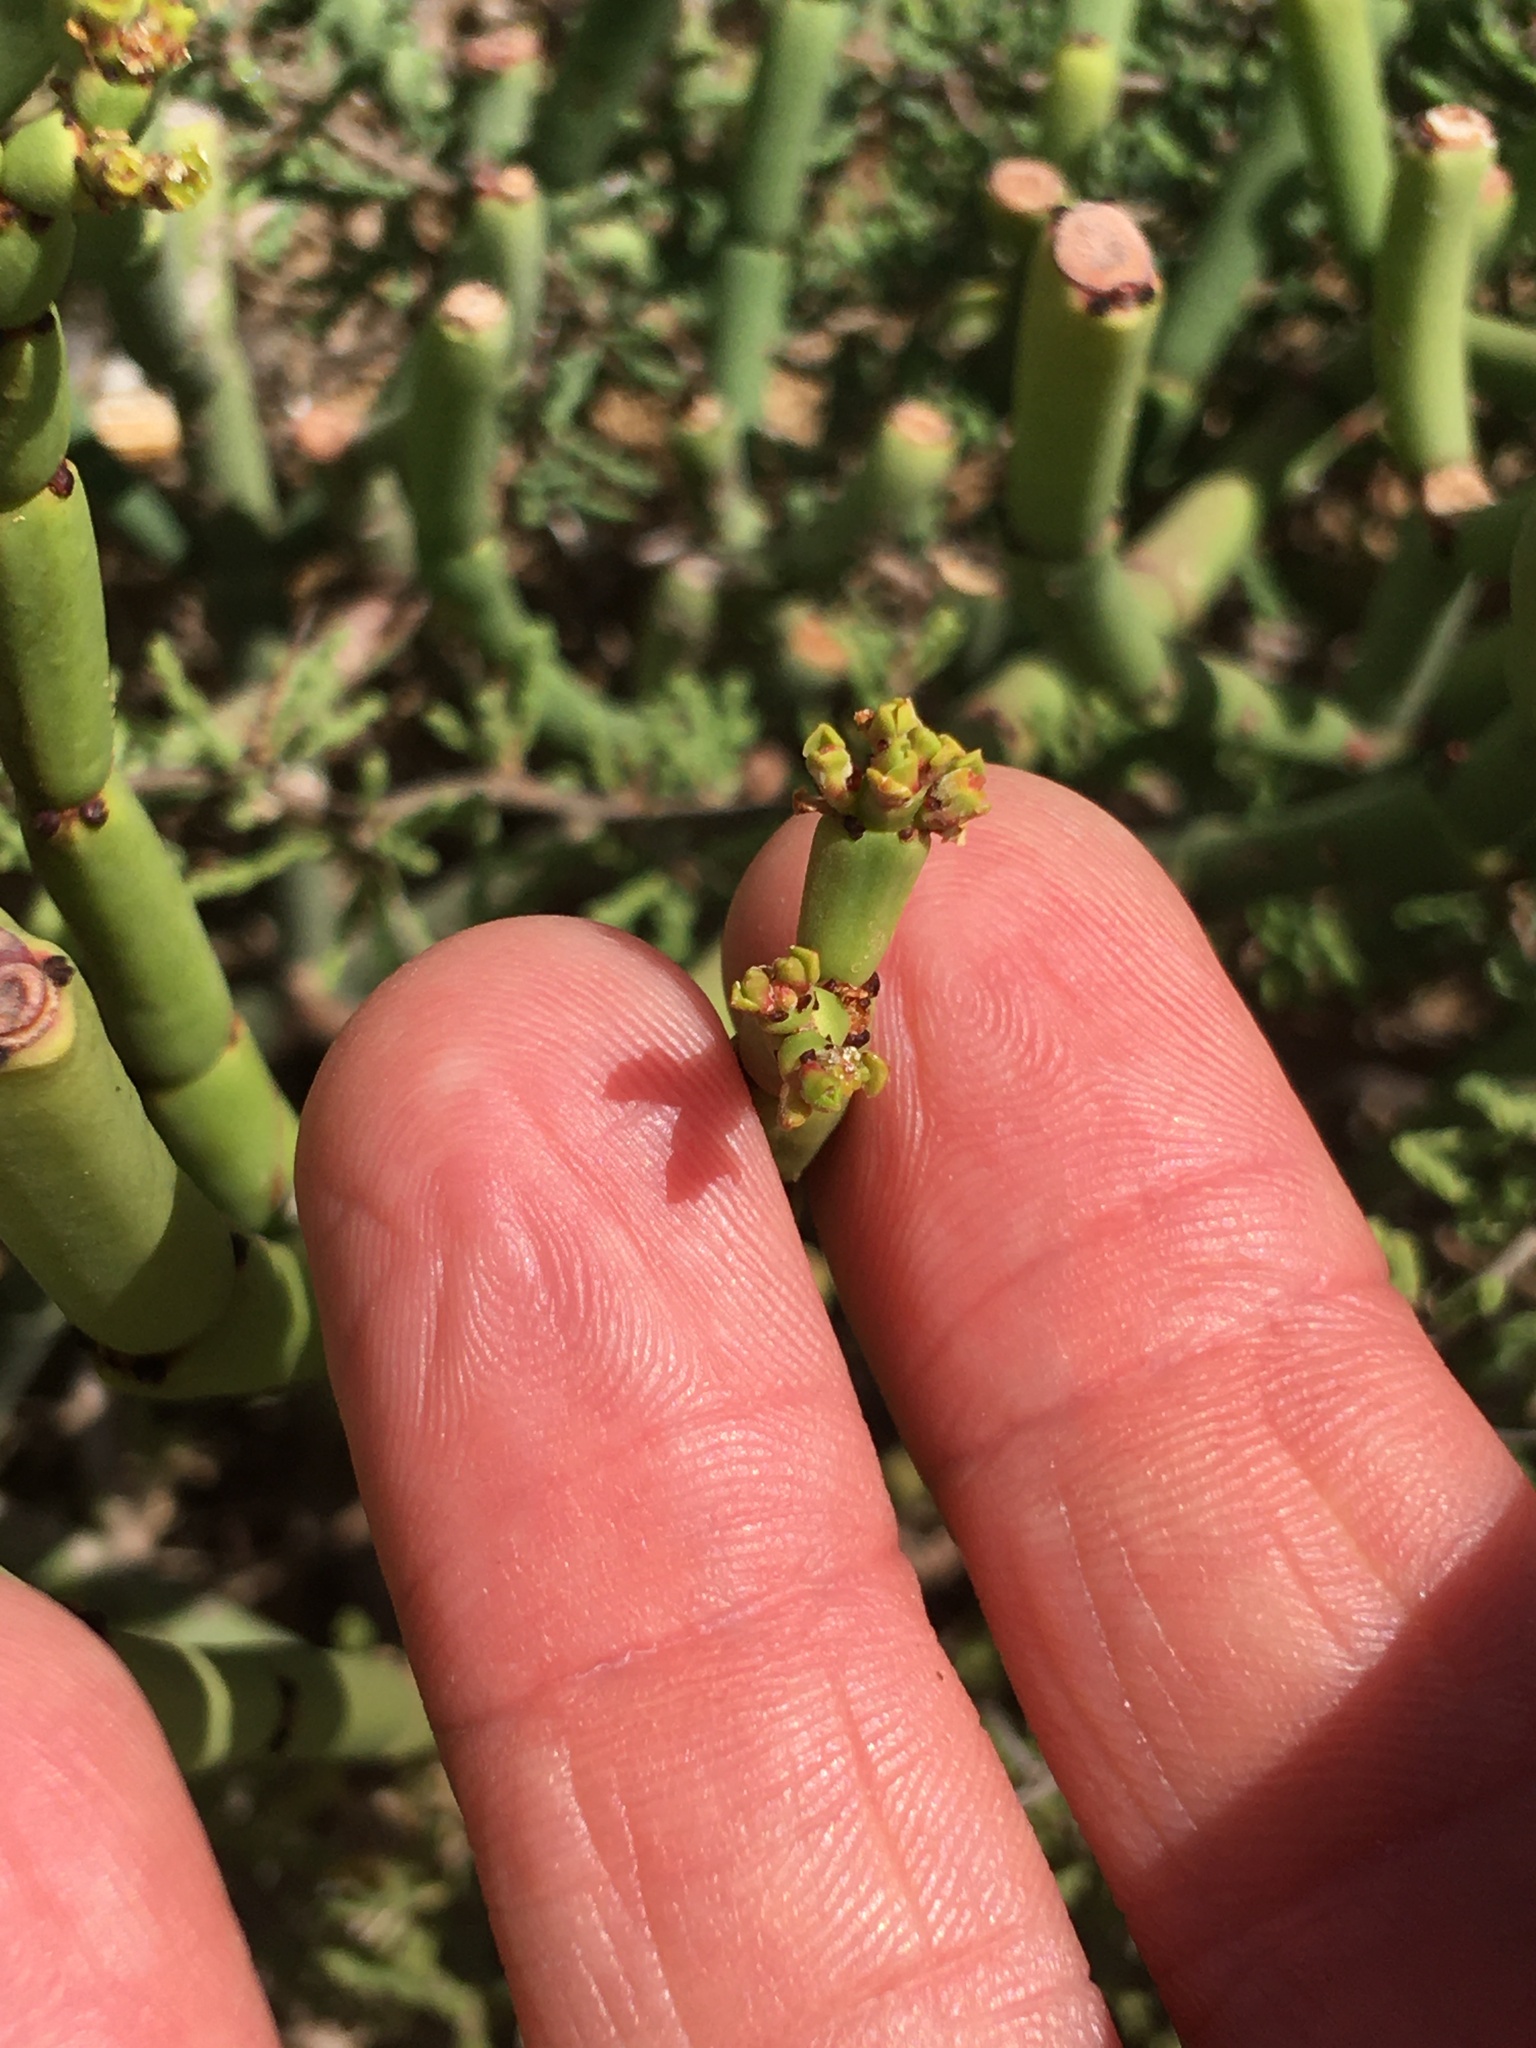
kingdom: Plantae
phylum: Tracheophyta
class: Magnoliopsida
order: Malpighiales
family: Euphorbiaceae
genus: Euphorbia
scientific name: Euphorbia burmanni
